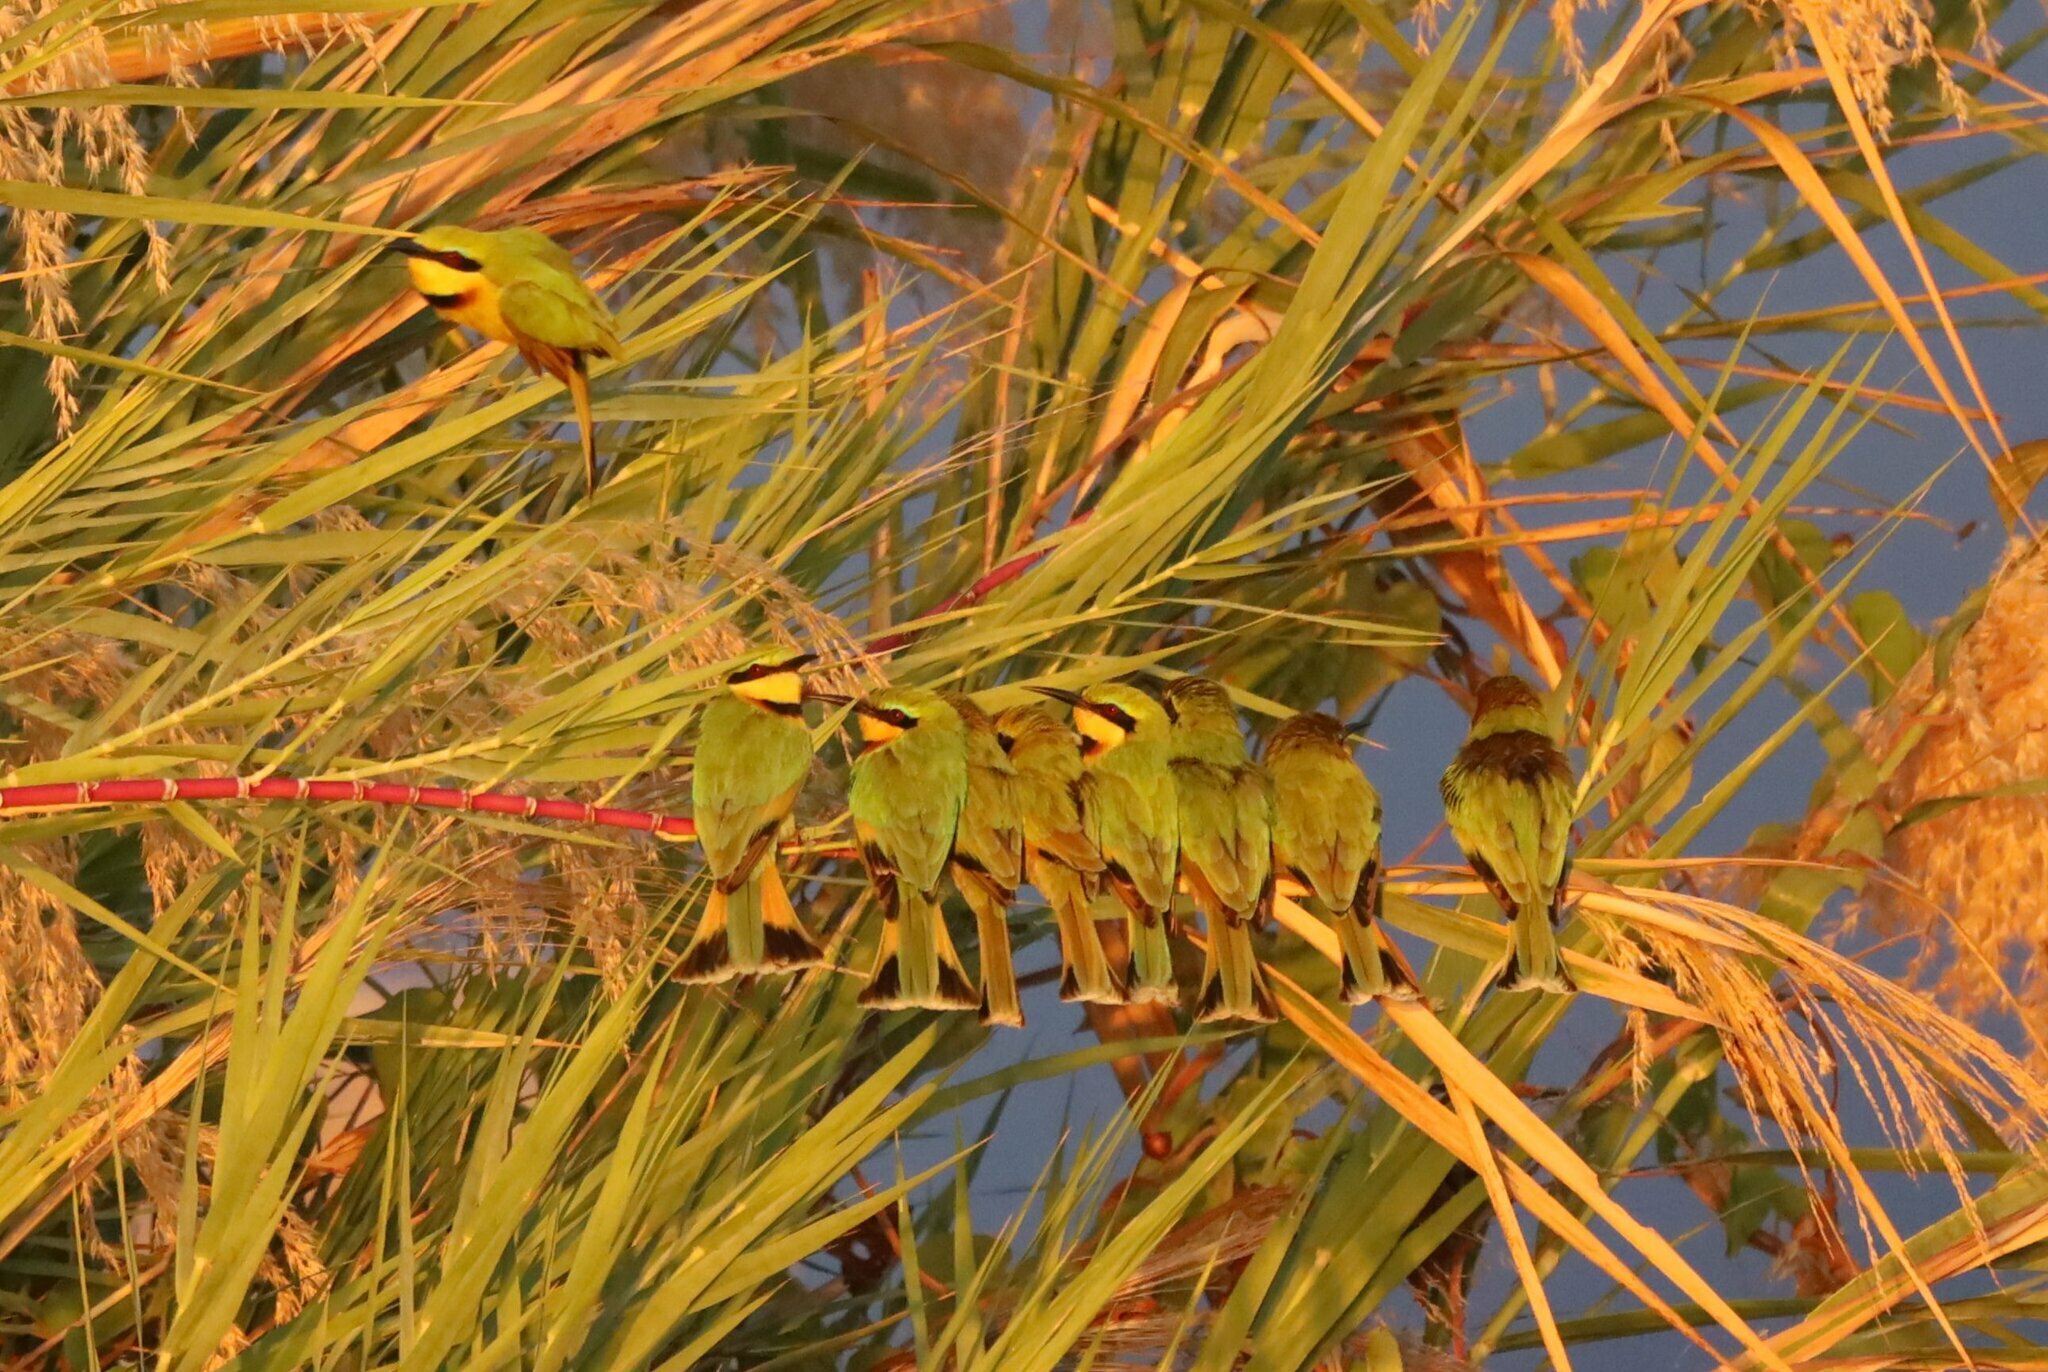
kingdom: Animalia
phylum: Chordata
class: Aves
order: Coraciiformes
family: Meropidae
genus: Merops
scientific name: Merops pusillus
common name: Little bee-eater
